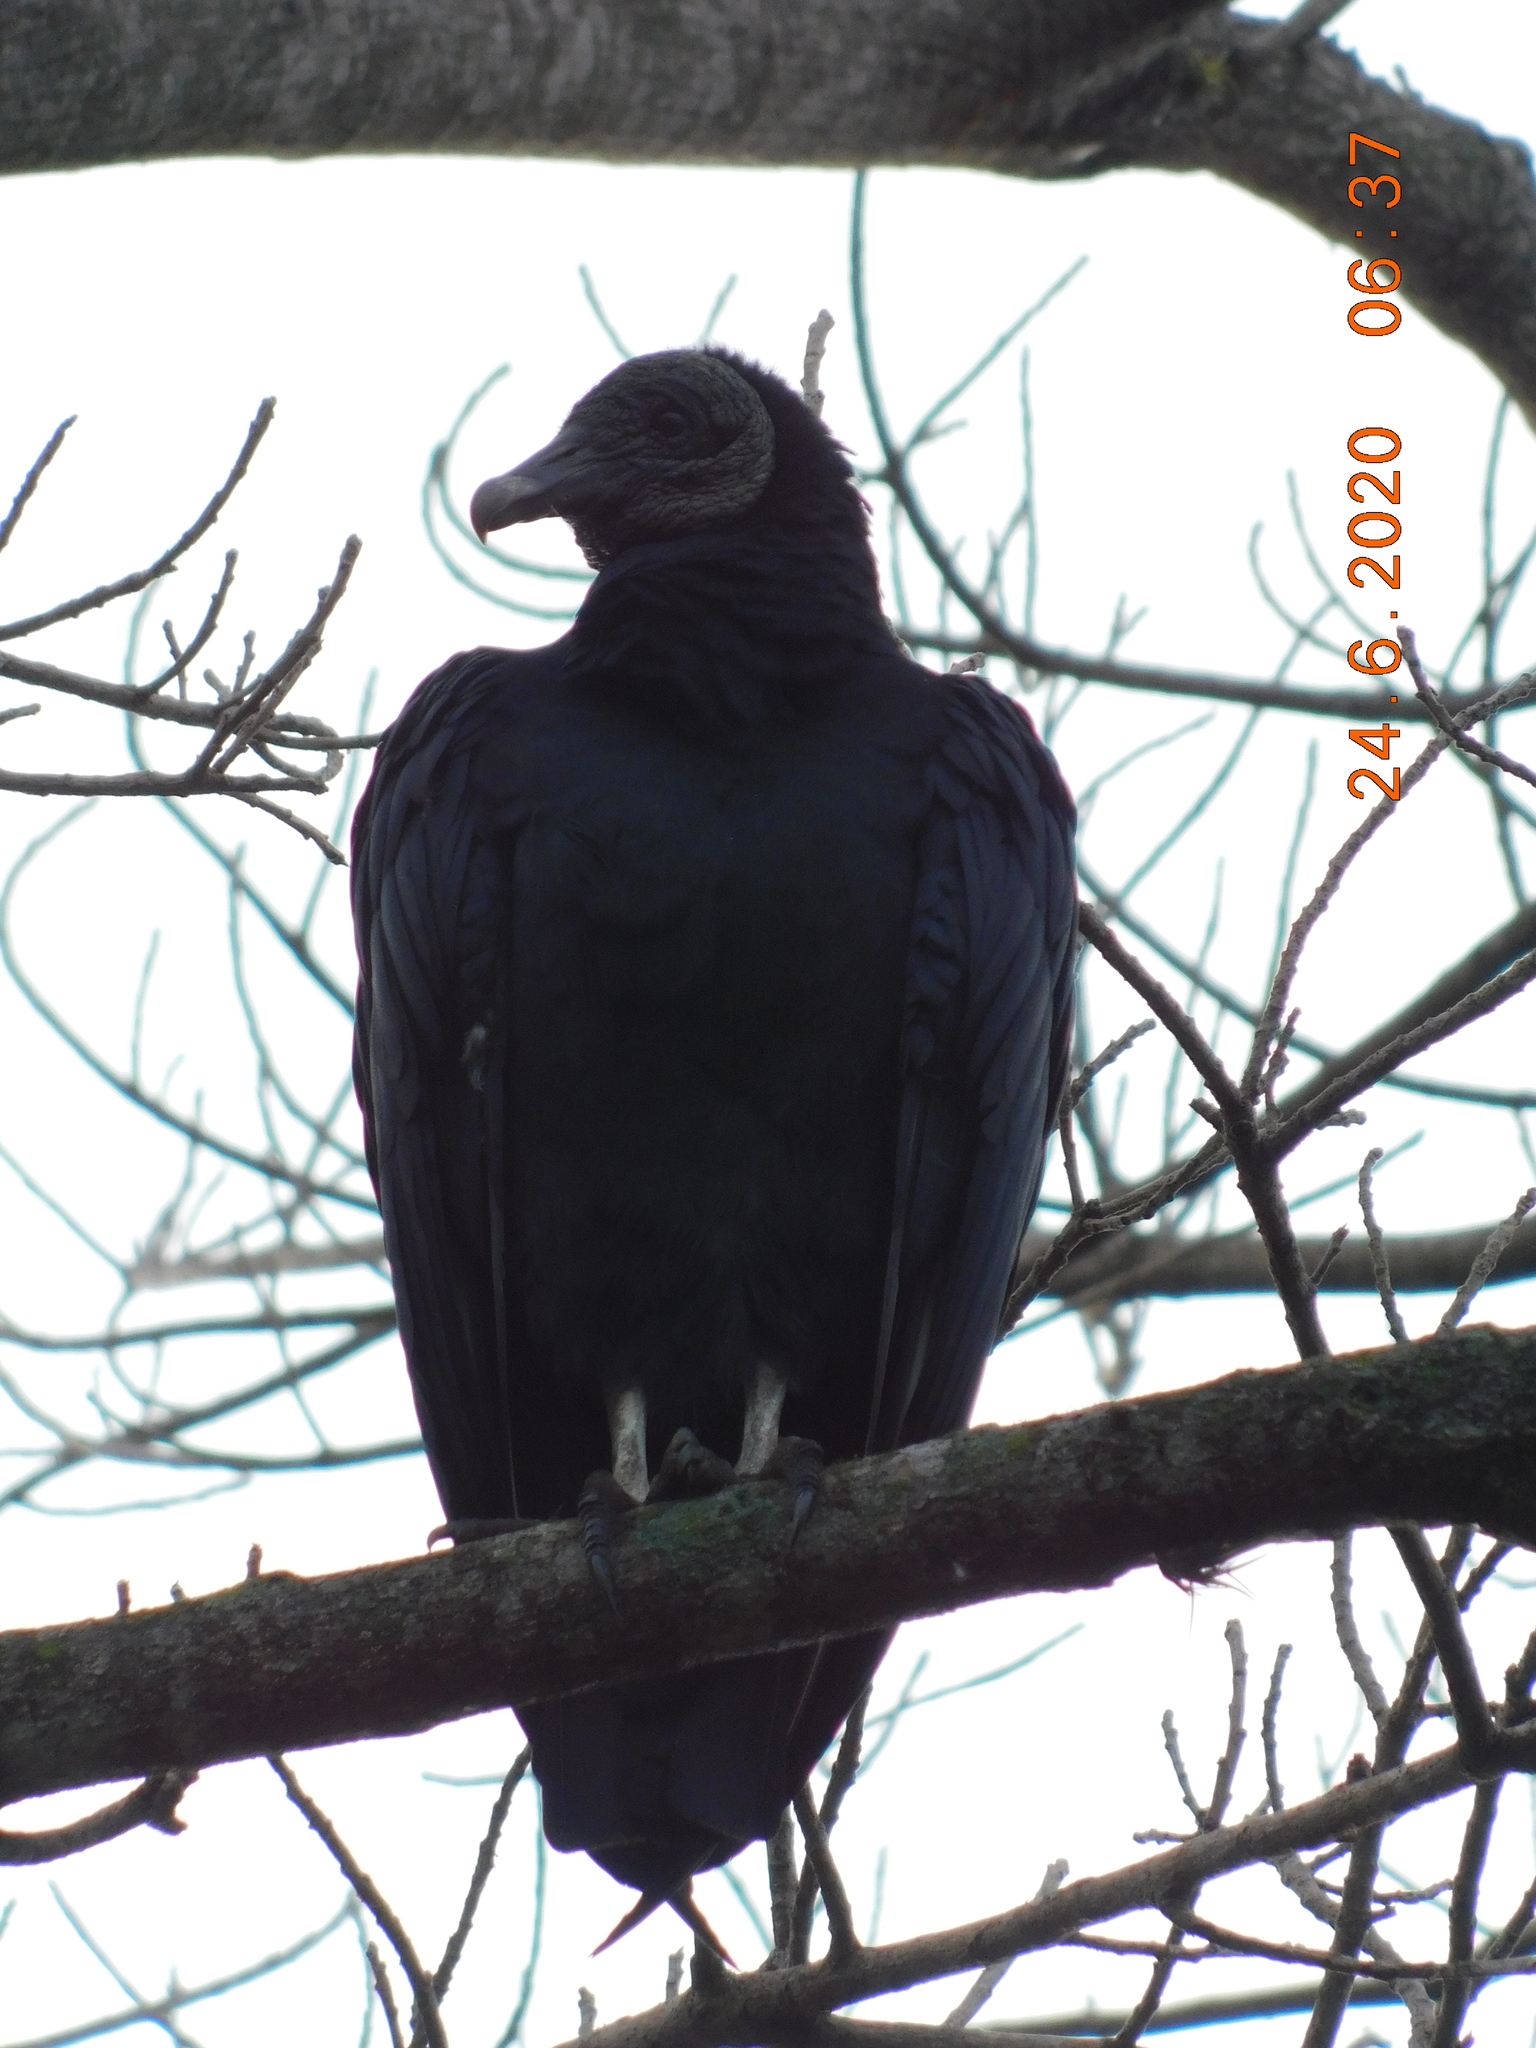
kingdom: Animalia
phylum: Chordata
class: Aves
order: Accipitriformes
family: Cathartidae
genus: Coragyps
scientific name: Coragyps atratus
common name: Black vulture
